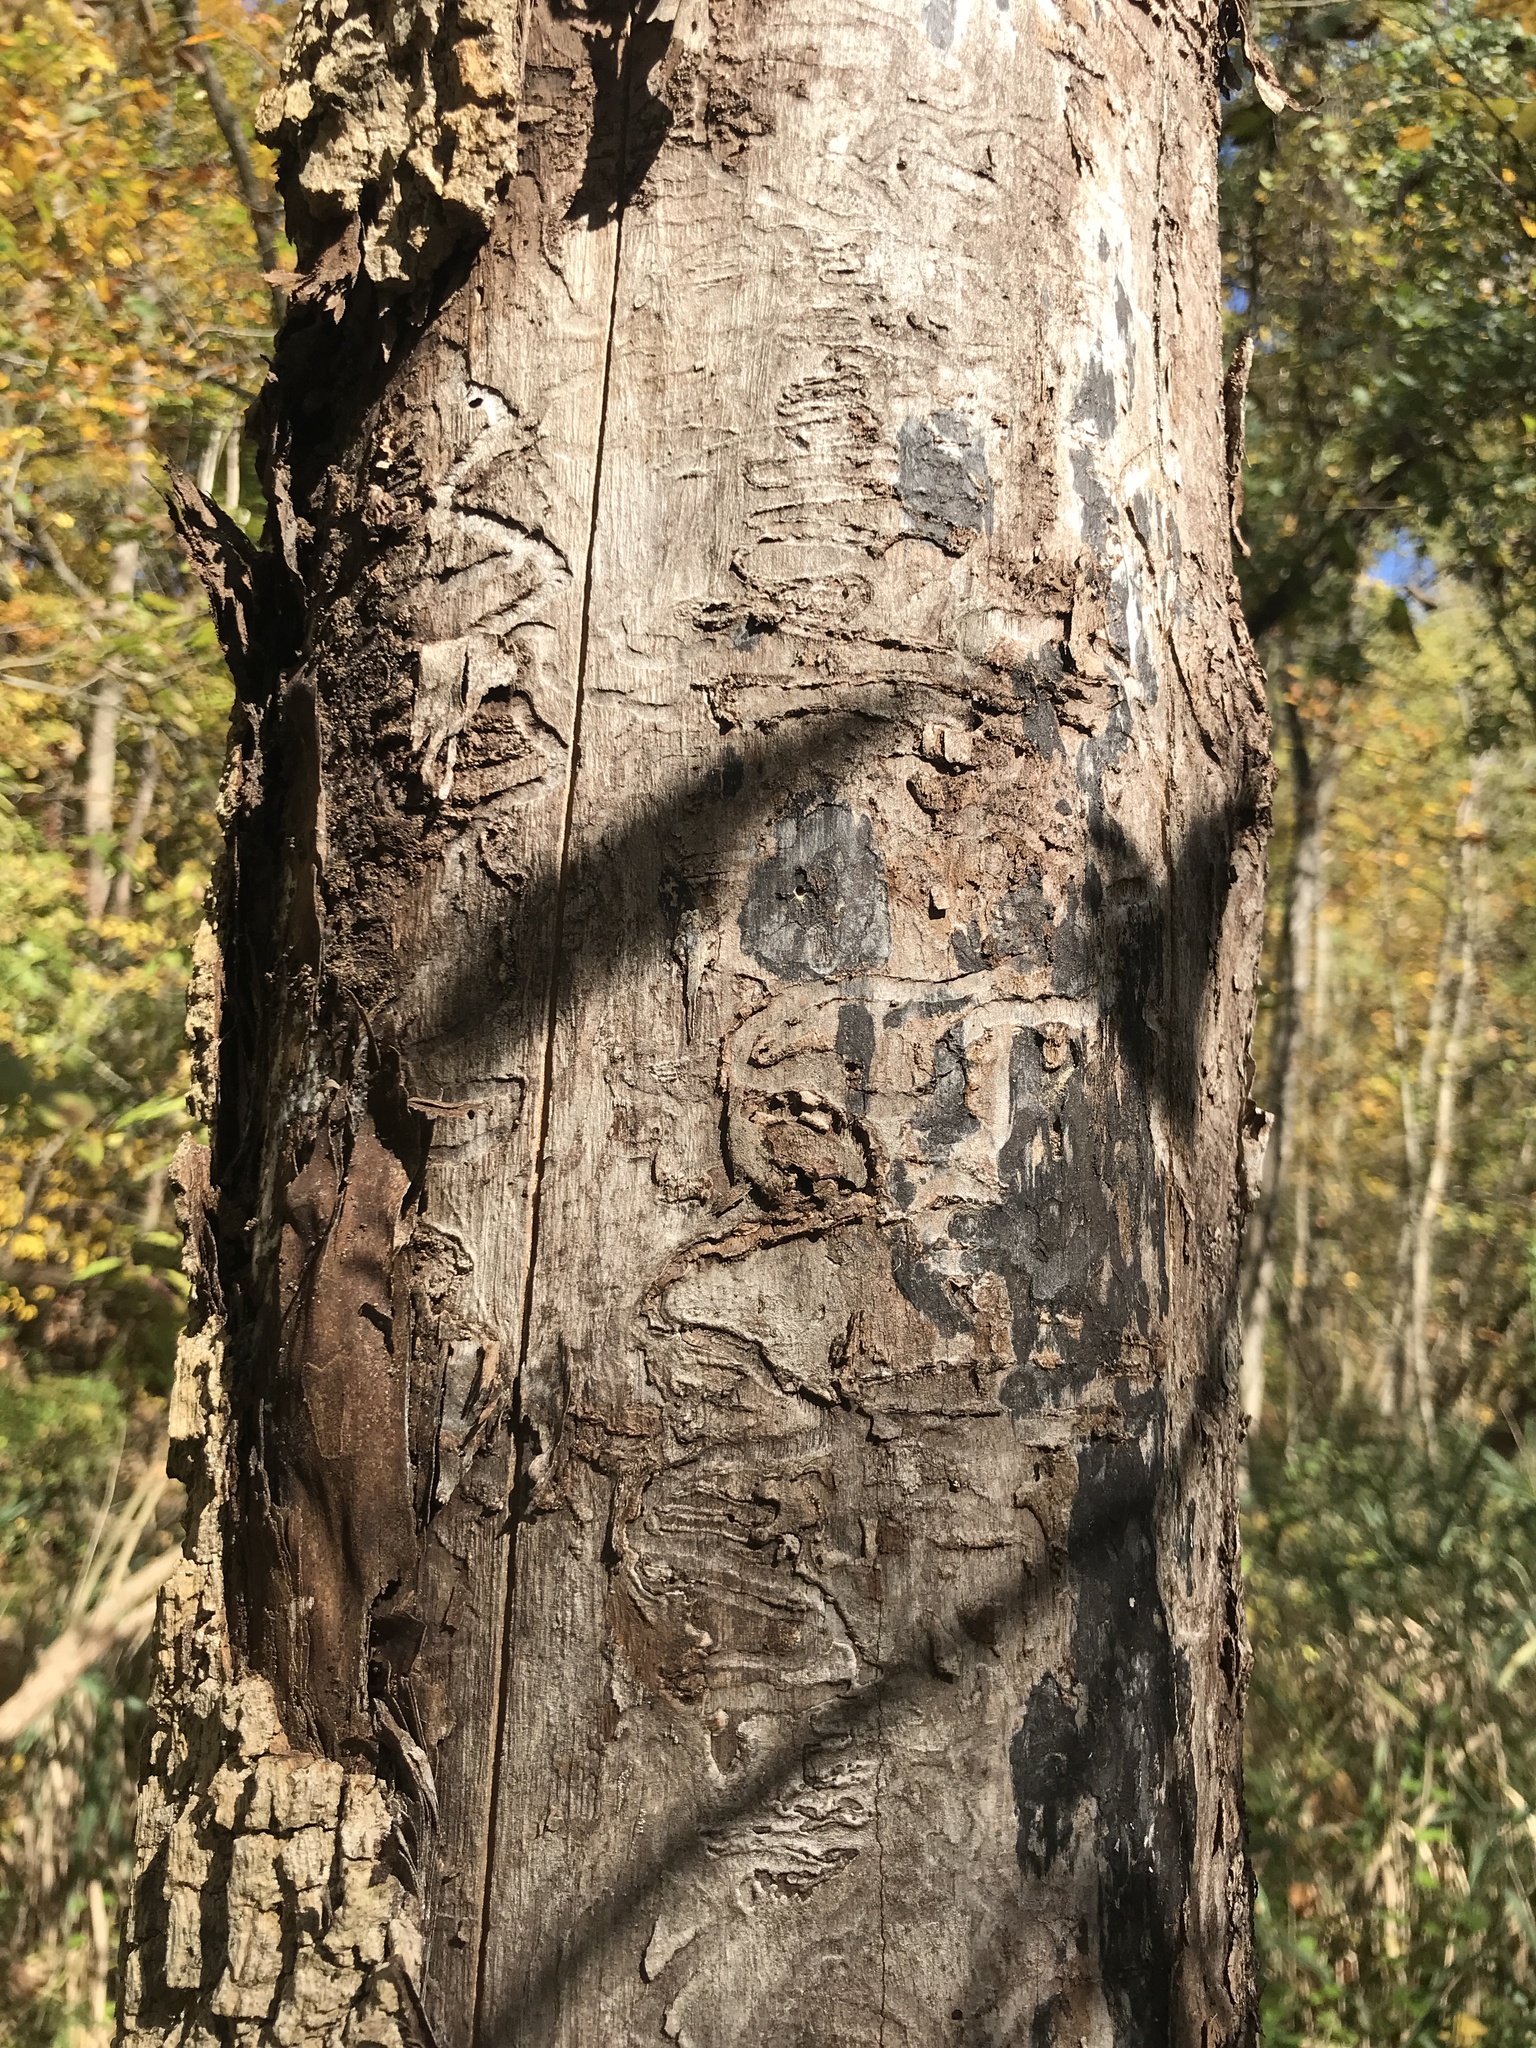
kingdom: Animalia
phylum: Arthropoda
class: Insecta
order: Coleoptera
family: Buprestidae
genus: Agrilus
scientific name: Agrilus planipennis
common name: Emerald ash borer
